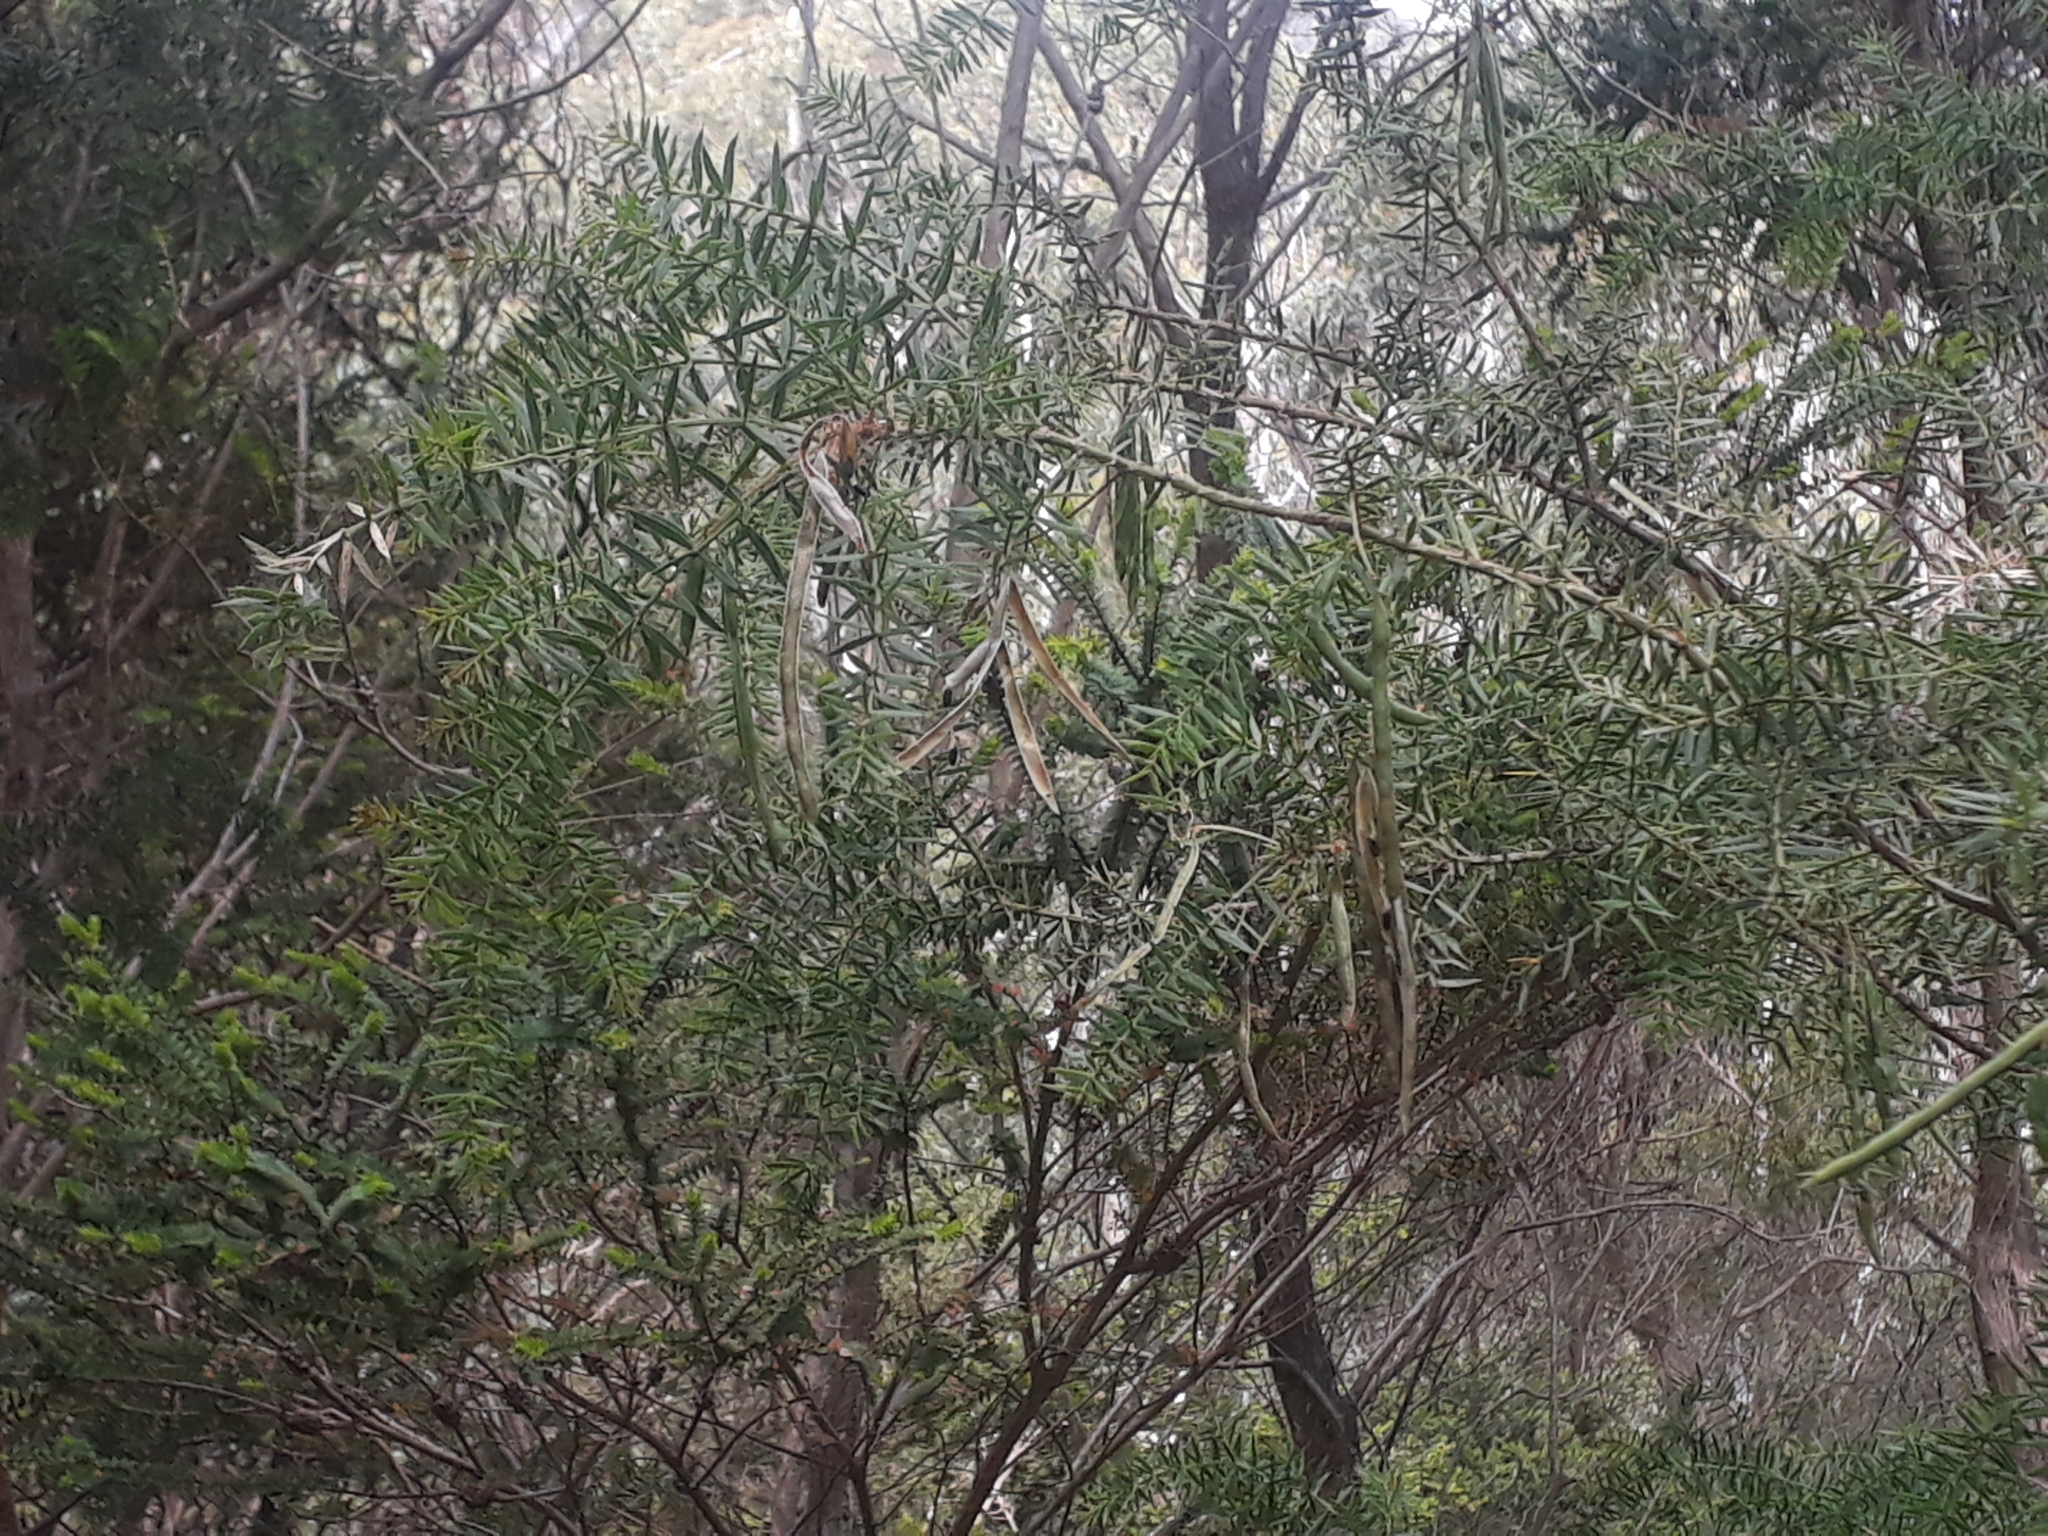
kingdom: Plantae
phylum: Tracheophyta
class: Magnoliopsida
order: Fabales
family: Fabaceae
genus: Acacia
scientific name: Acacia verticillata
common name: Prickly moses
